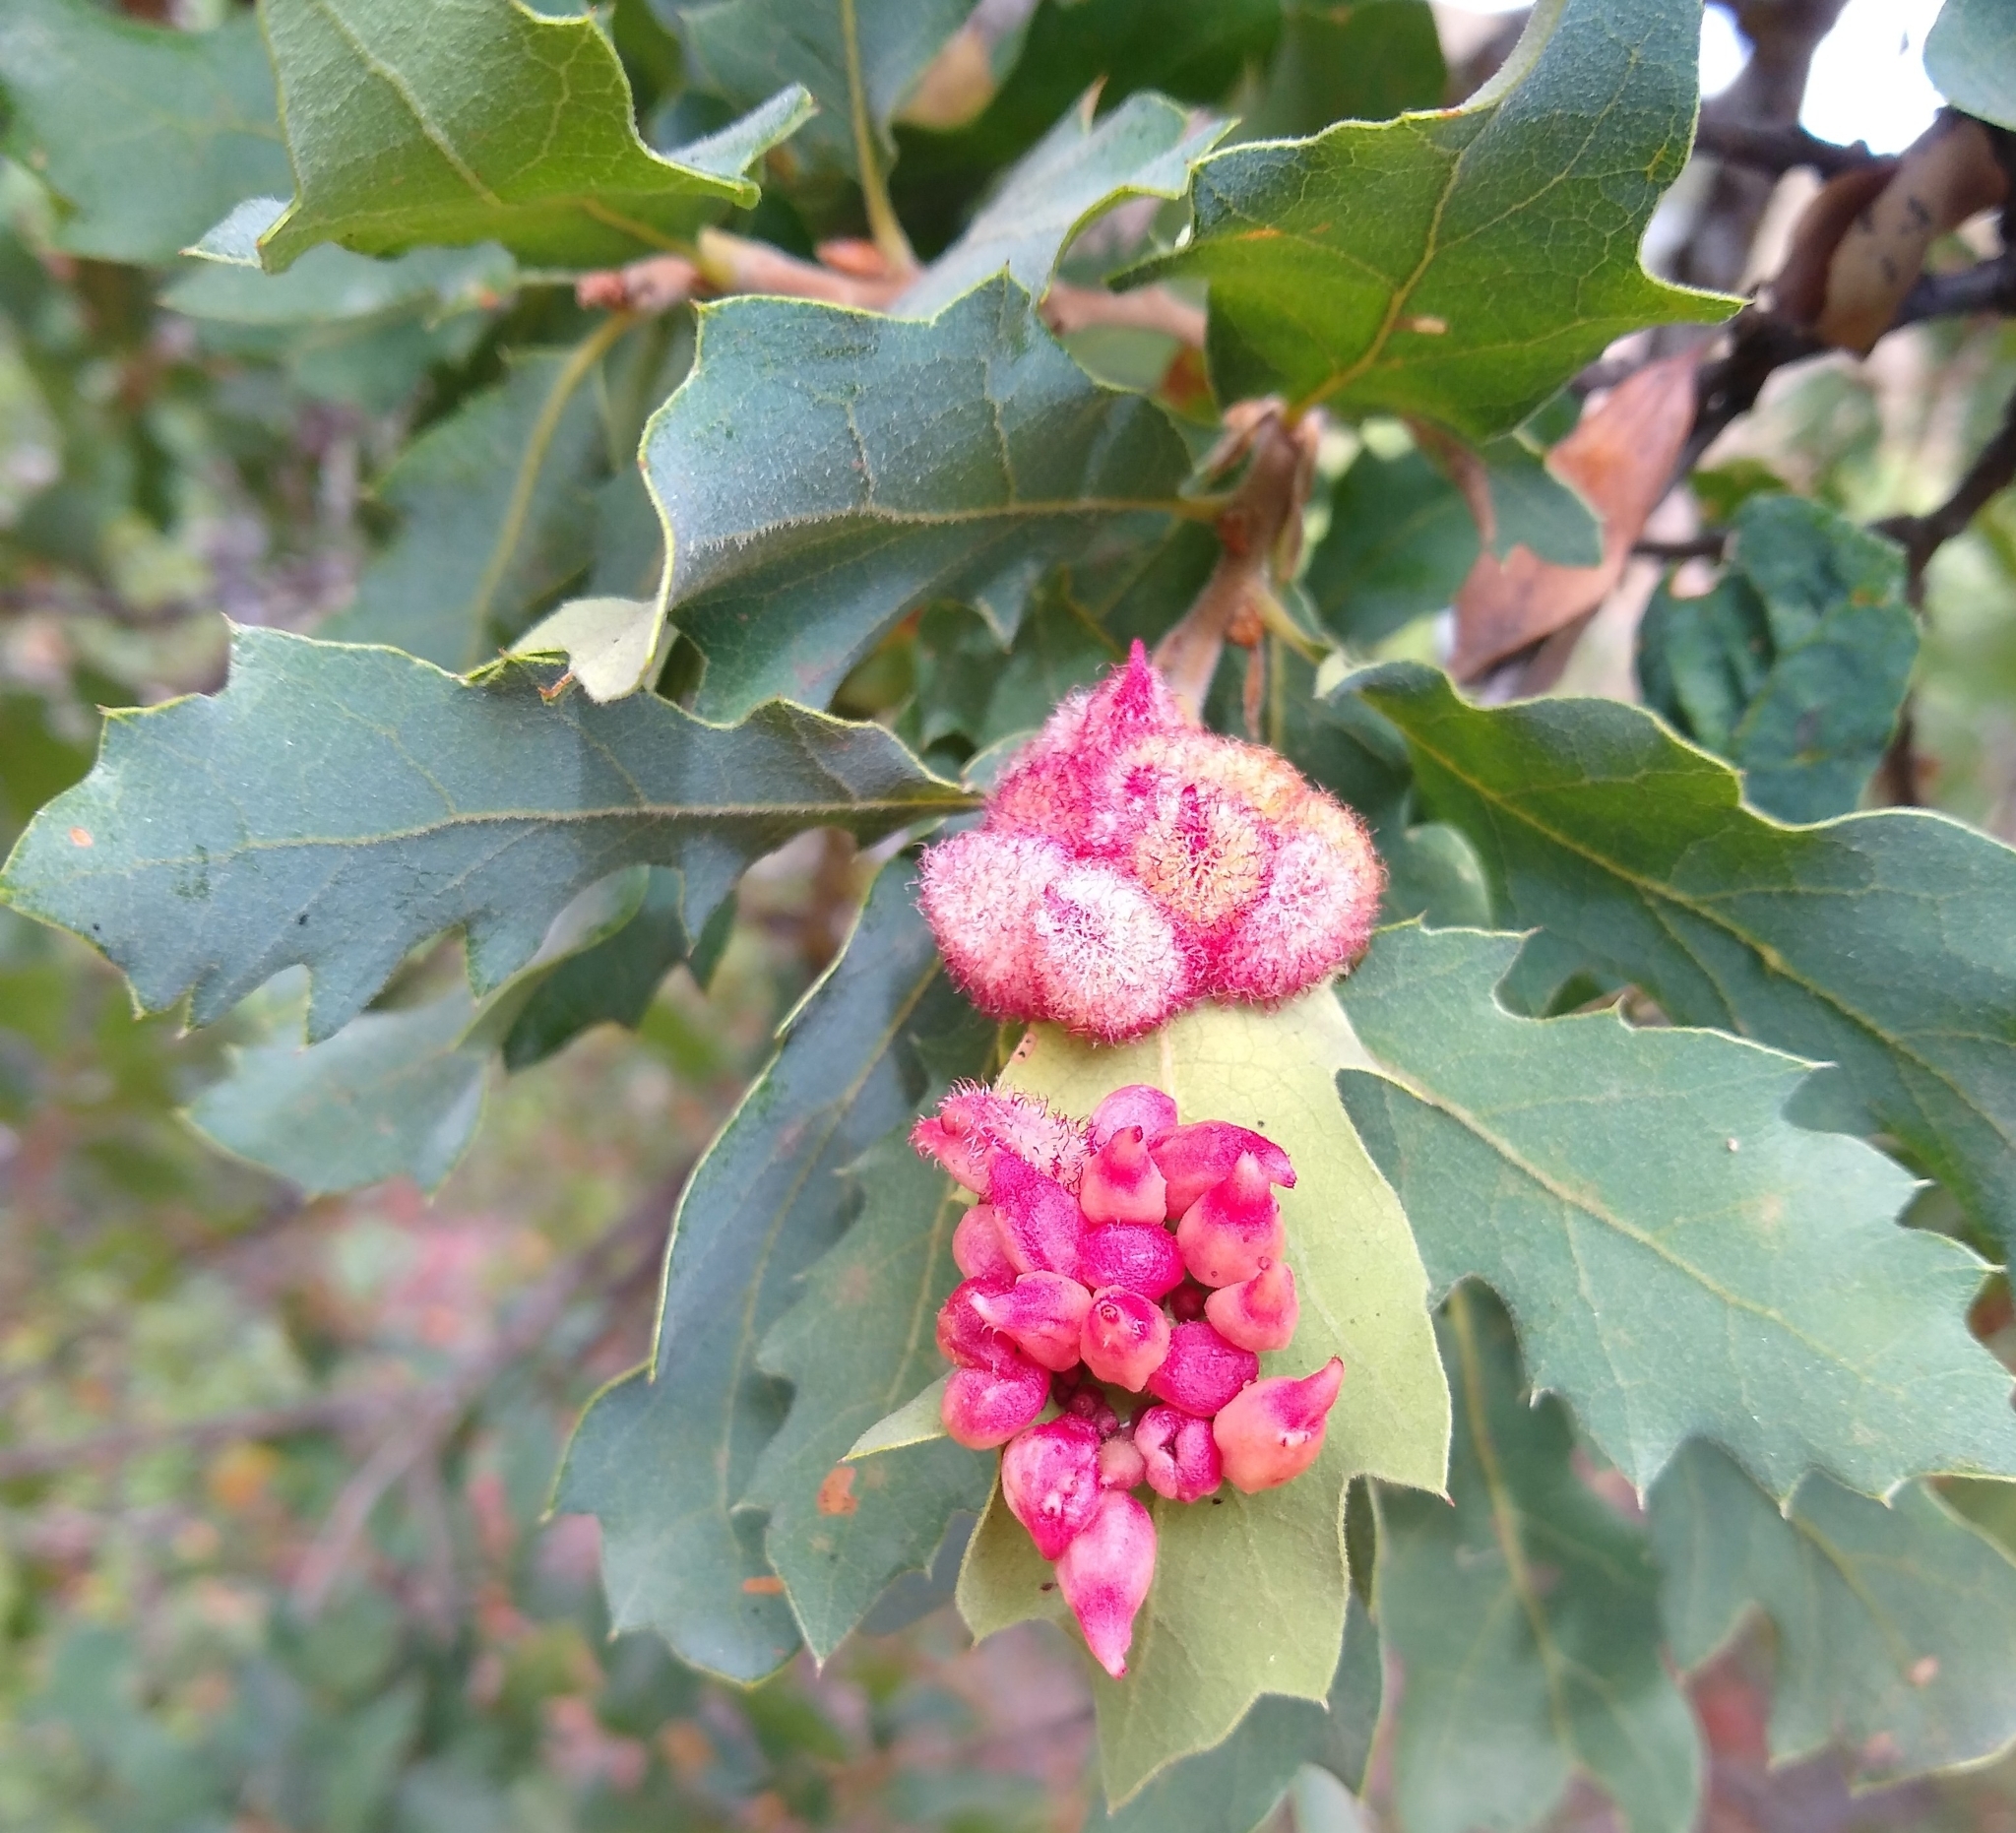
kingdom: Animalia
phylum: Arthropoda
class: Insecta
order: Hymenoptera
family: Cynipidae
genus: Andricus
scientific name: Andricus
